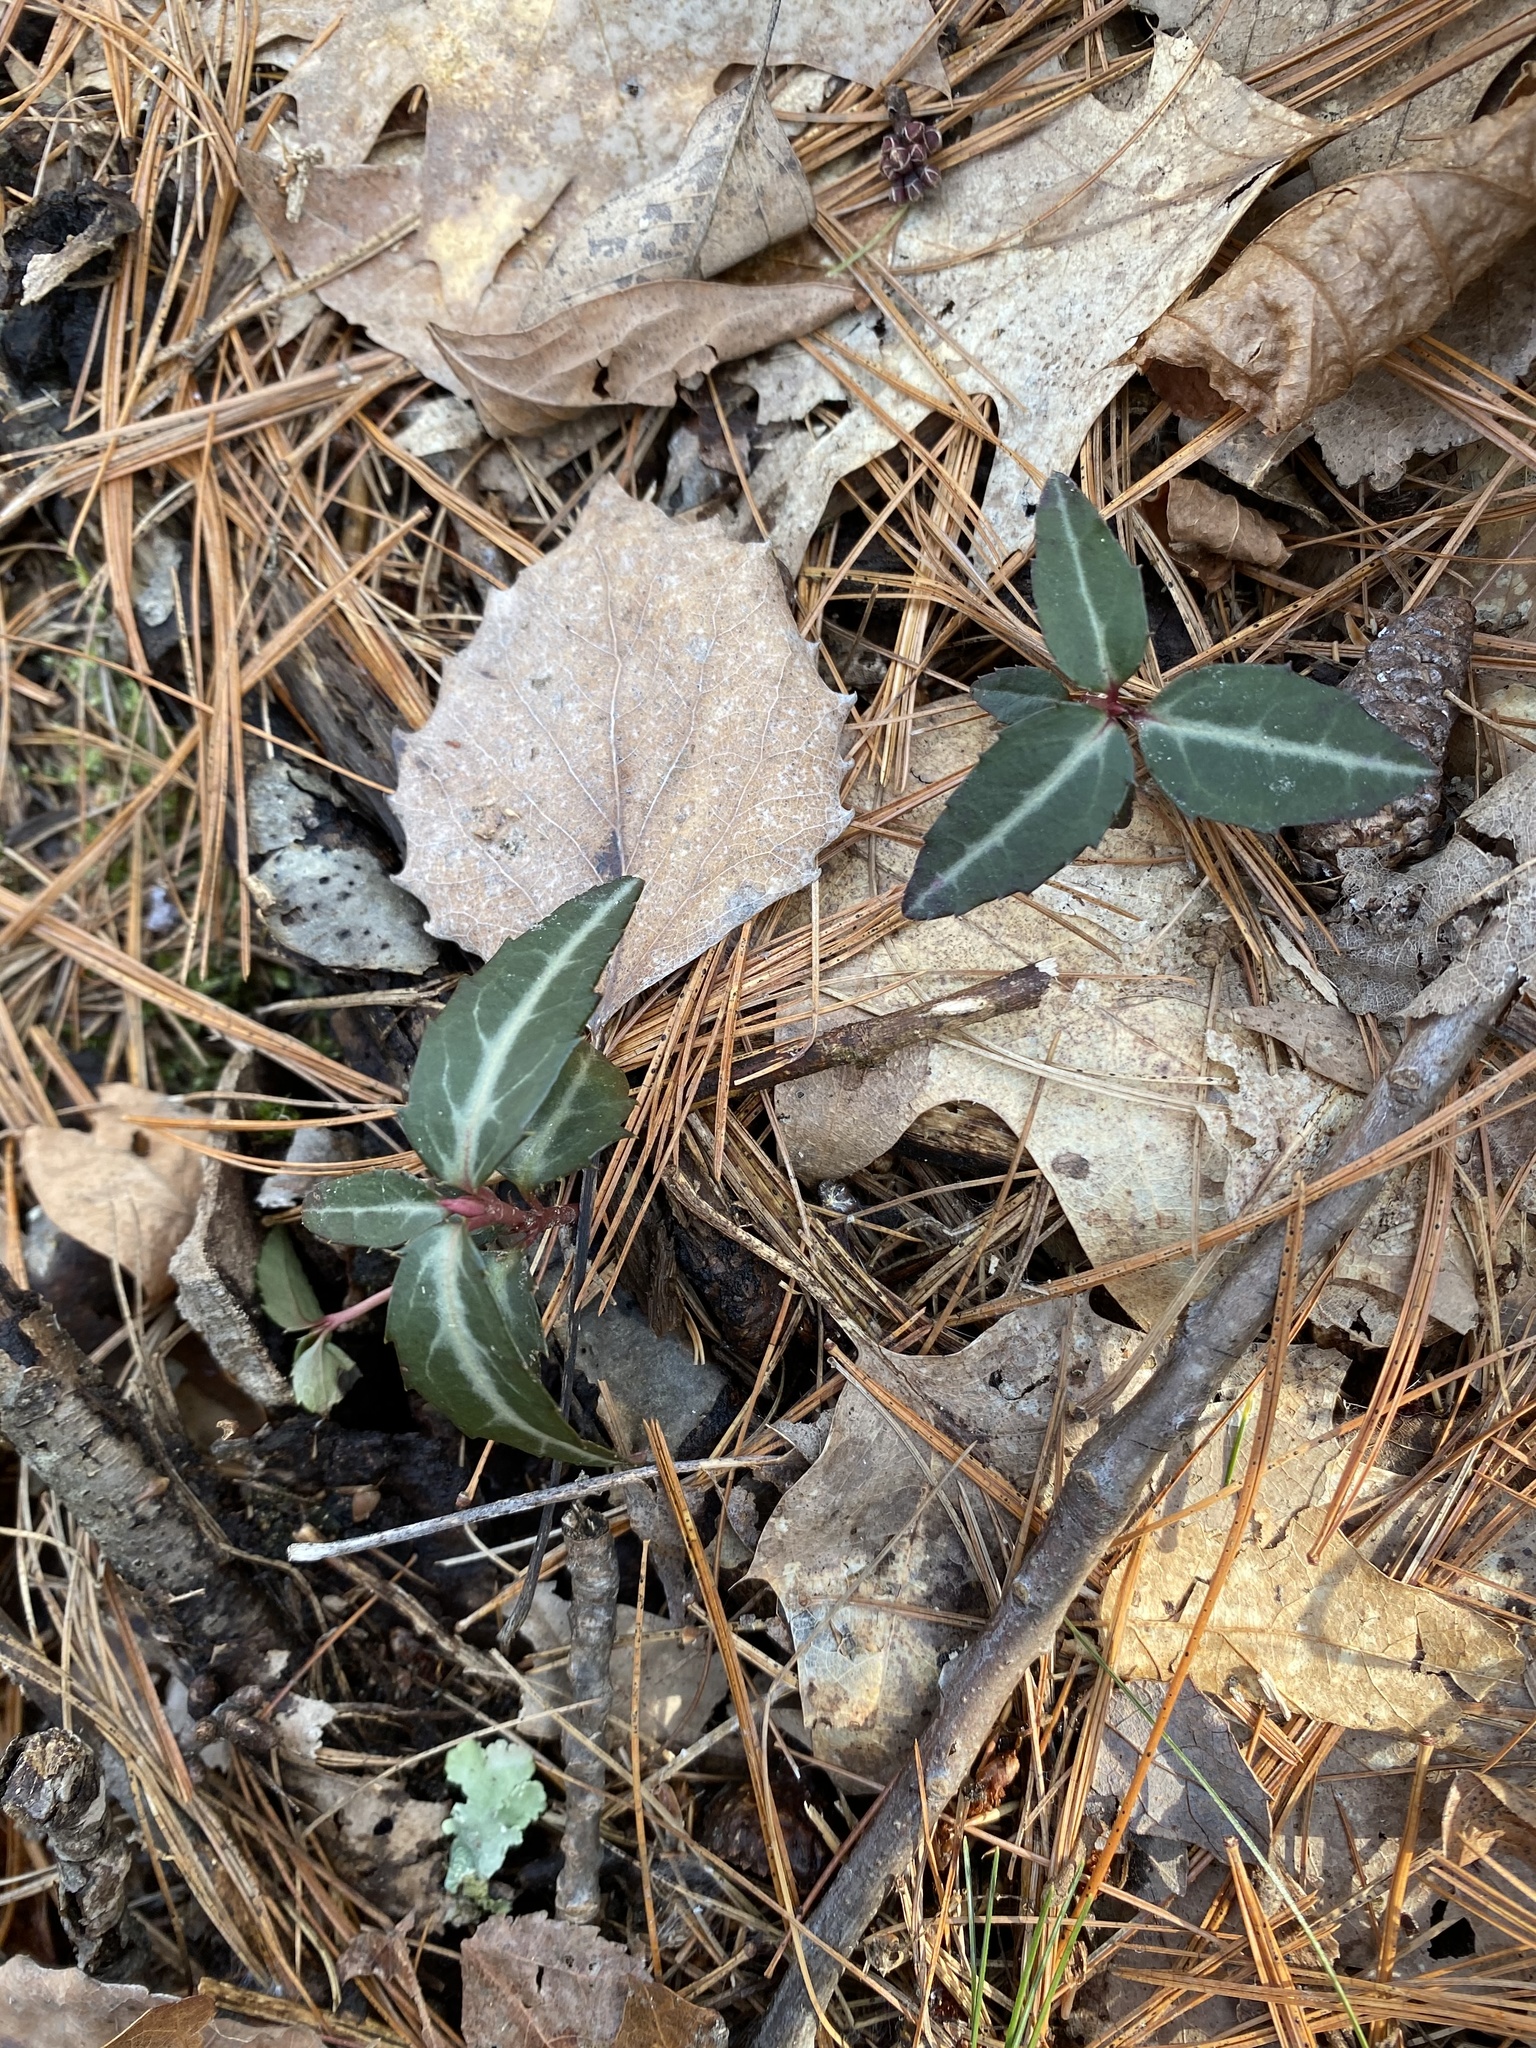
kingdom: Plantae
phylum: Tracheophyta
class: Magnoliopsida
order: Ericales
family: Ericaceae
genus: Chimaphila
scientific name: Chimaphila maculata
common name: Spotted pipsissewa
